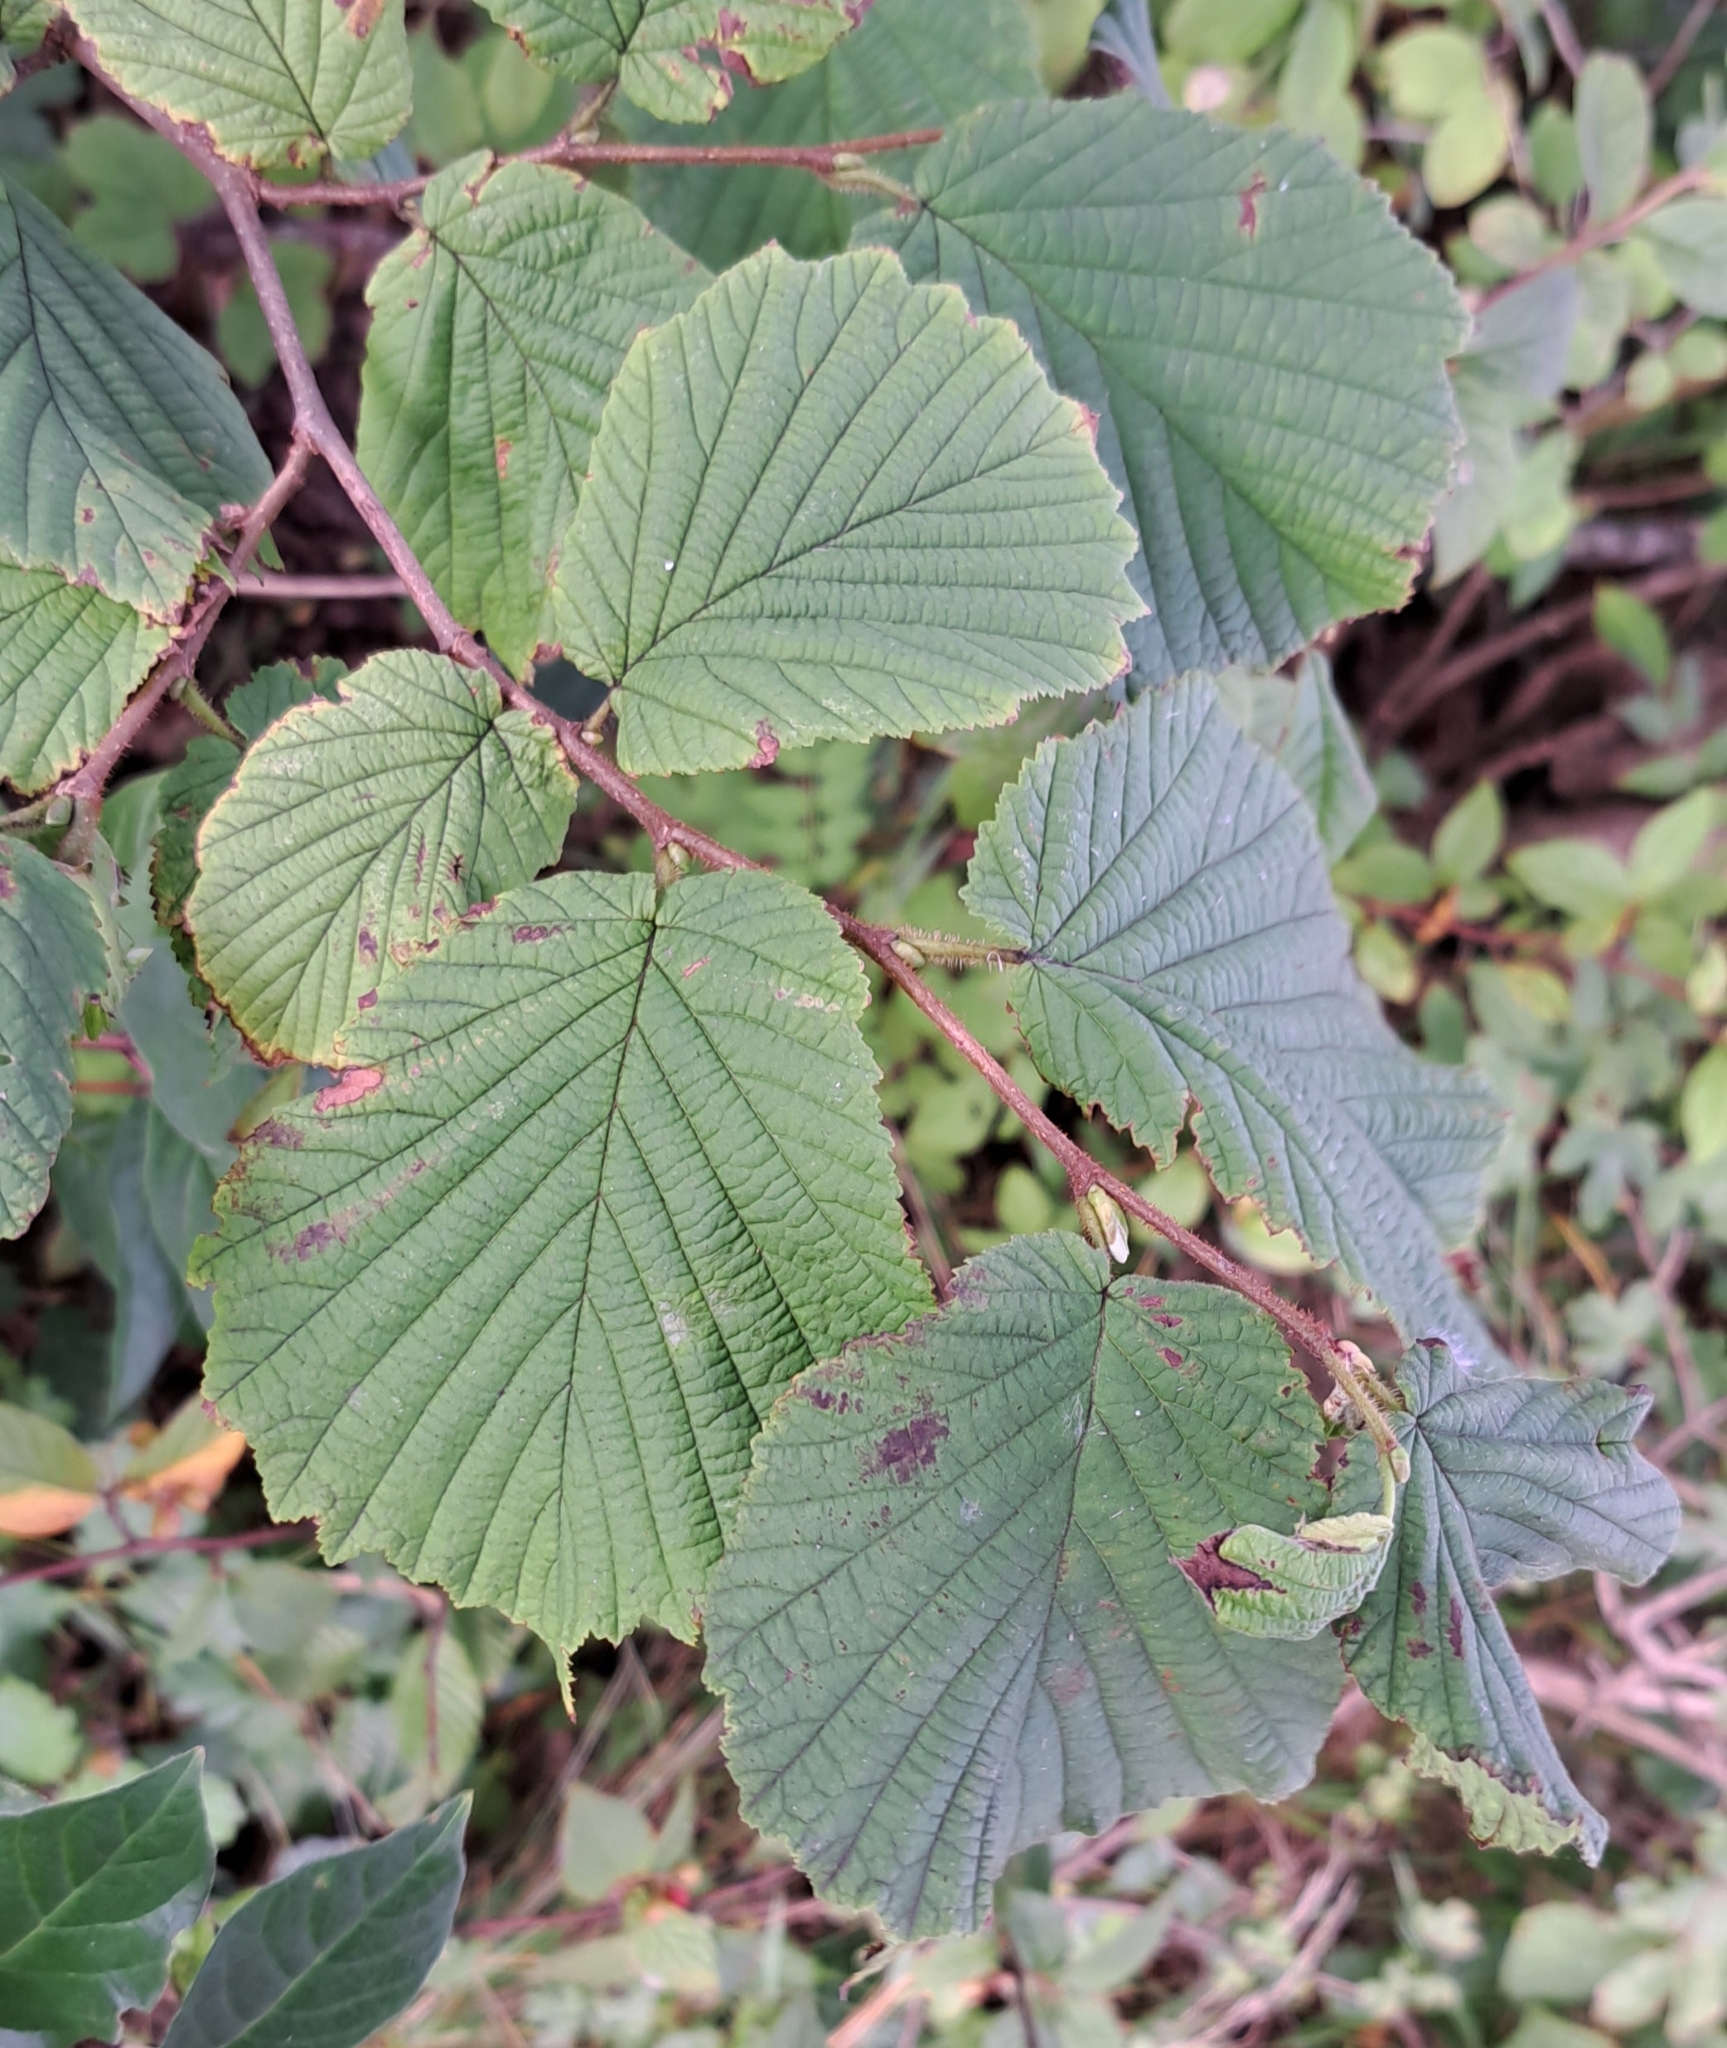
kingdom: Plantae
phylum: Tracheophyta
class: Magnoliopsida
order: Fagales
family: Betulaceae
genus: Corylus
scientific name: Corylus avellana
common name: European hazel
